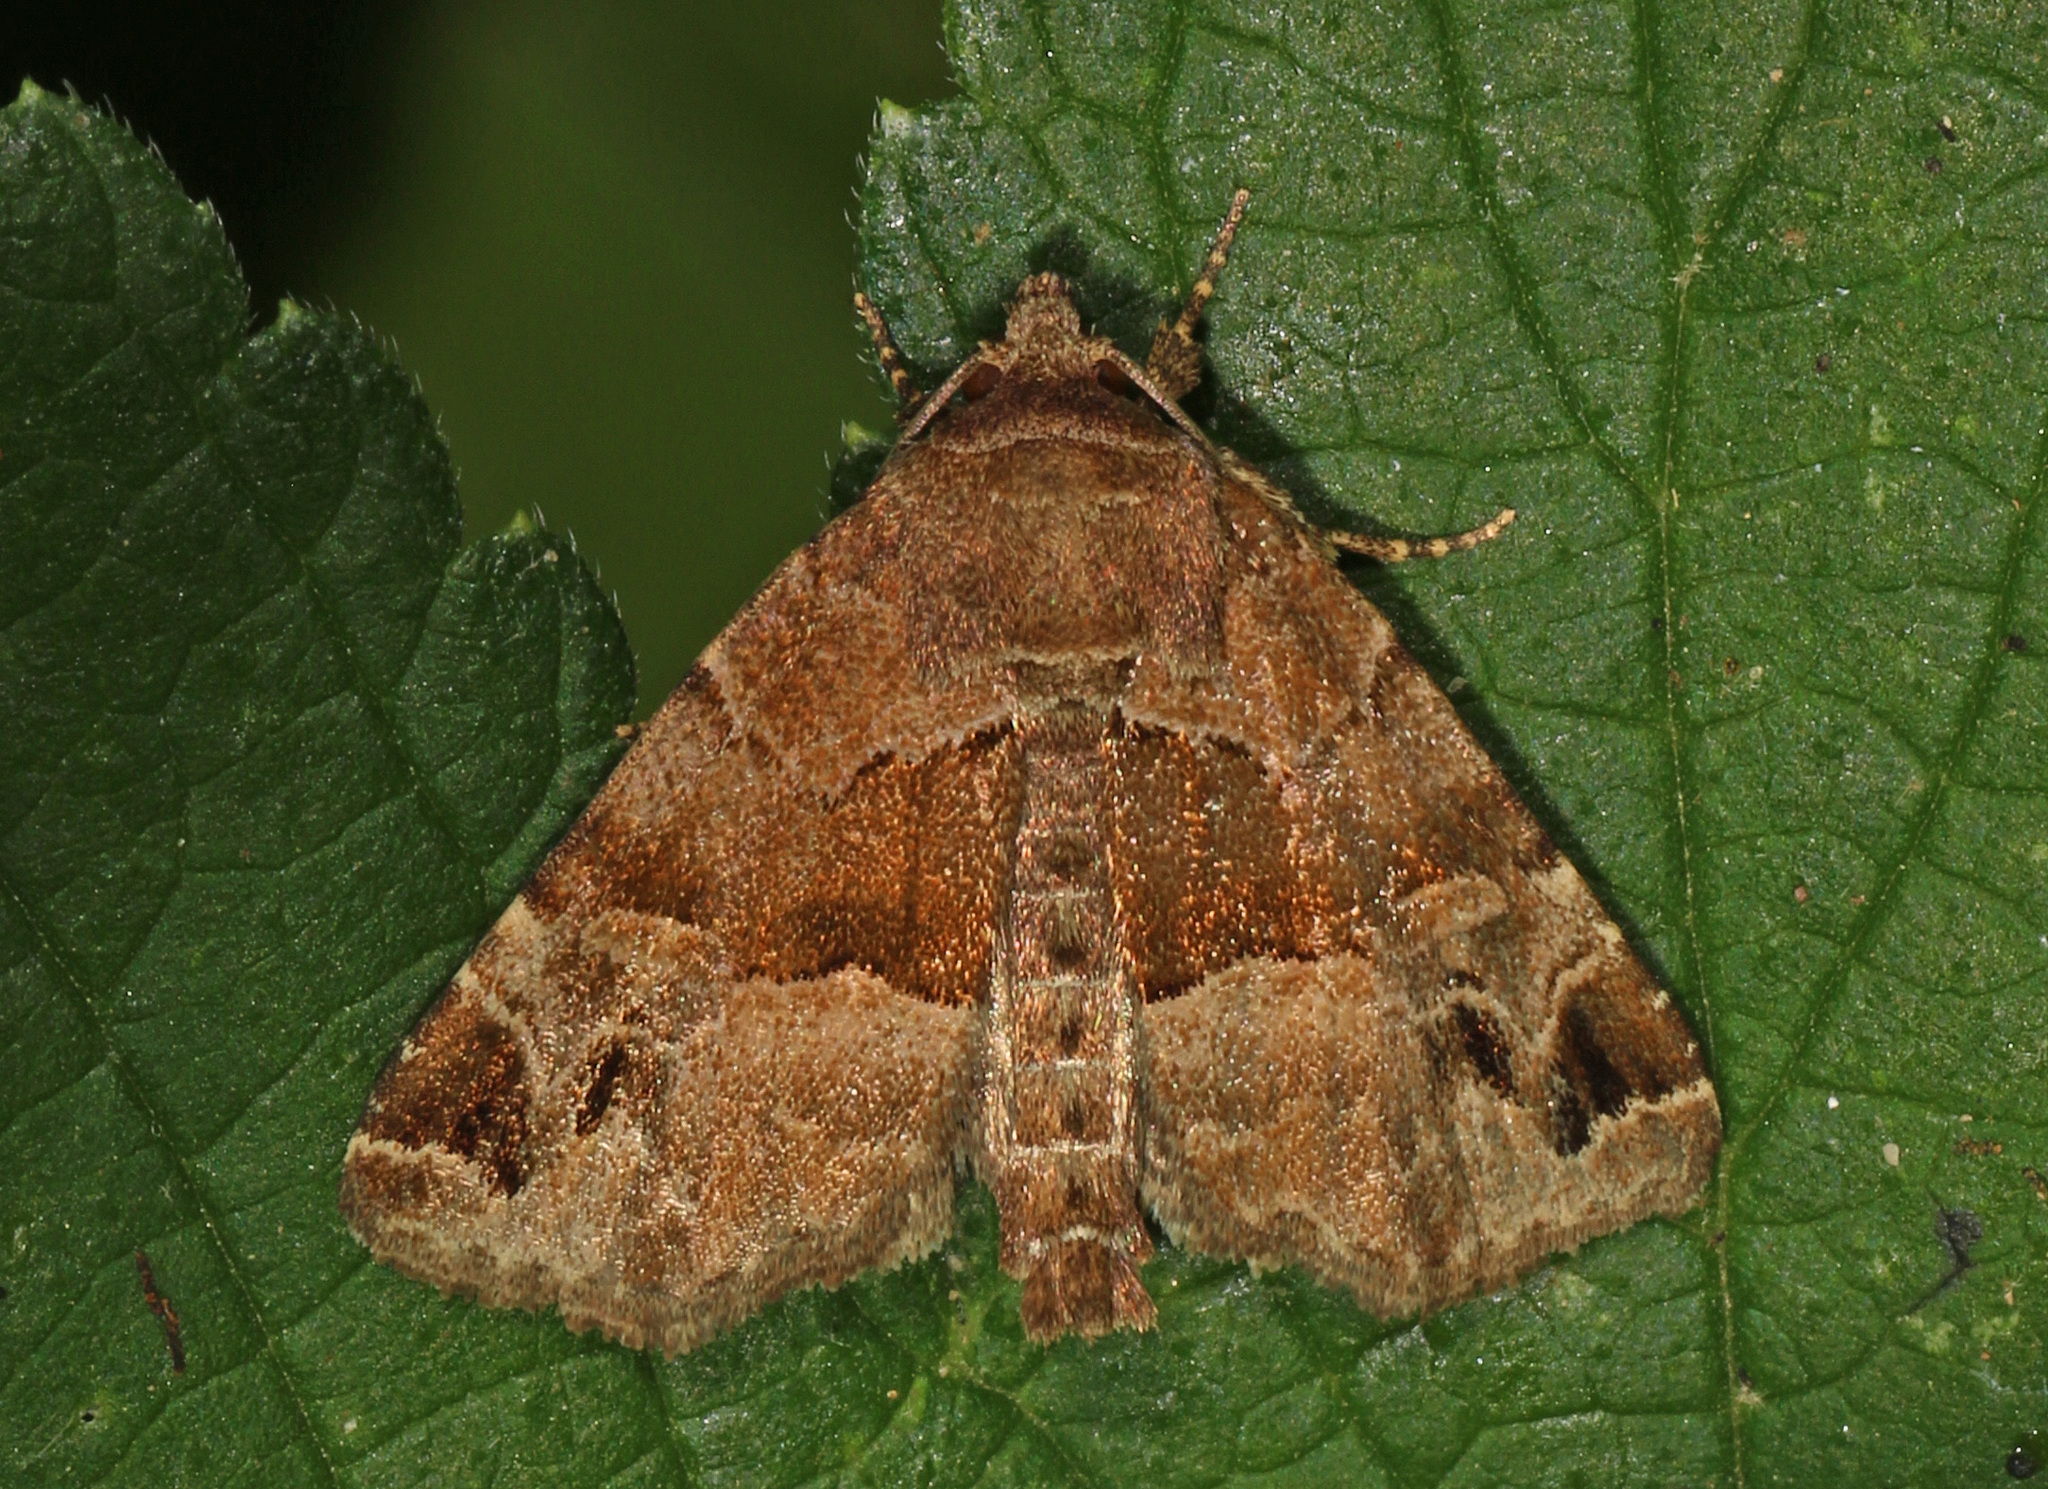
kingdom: Animalia
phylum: Arthropoda
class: Insecta
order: Lepidoptera
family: Noctuidae
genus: Niphonyx
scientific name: Niphonyx segregata
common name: Hops angleshade moth
